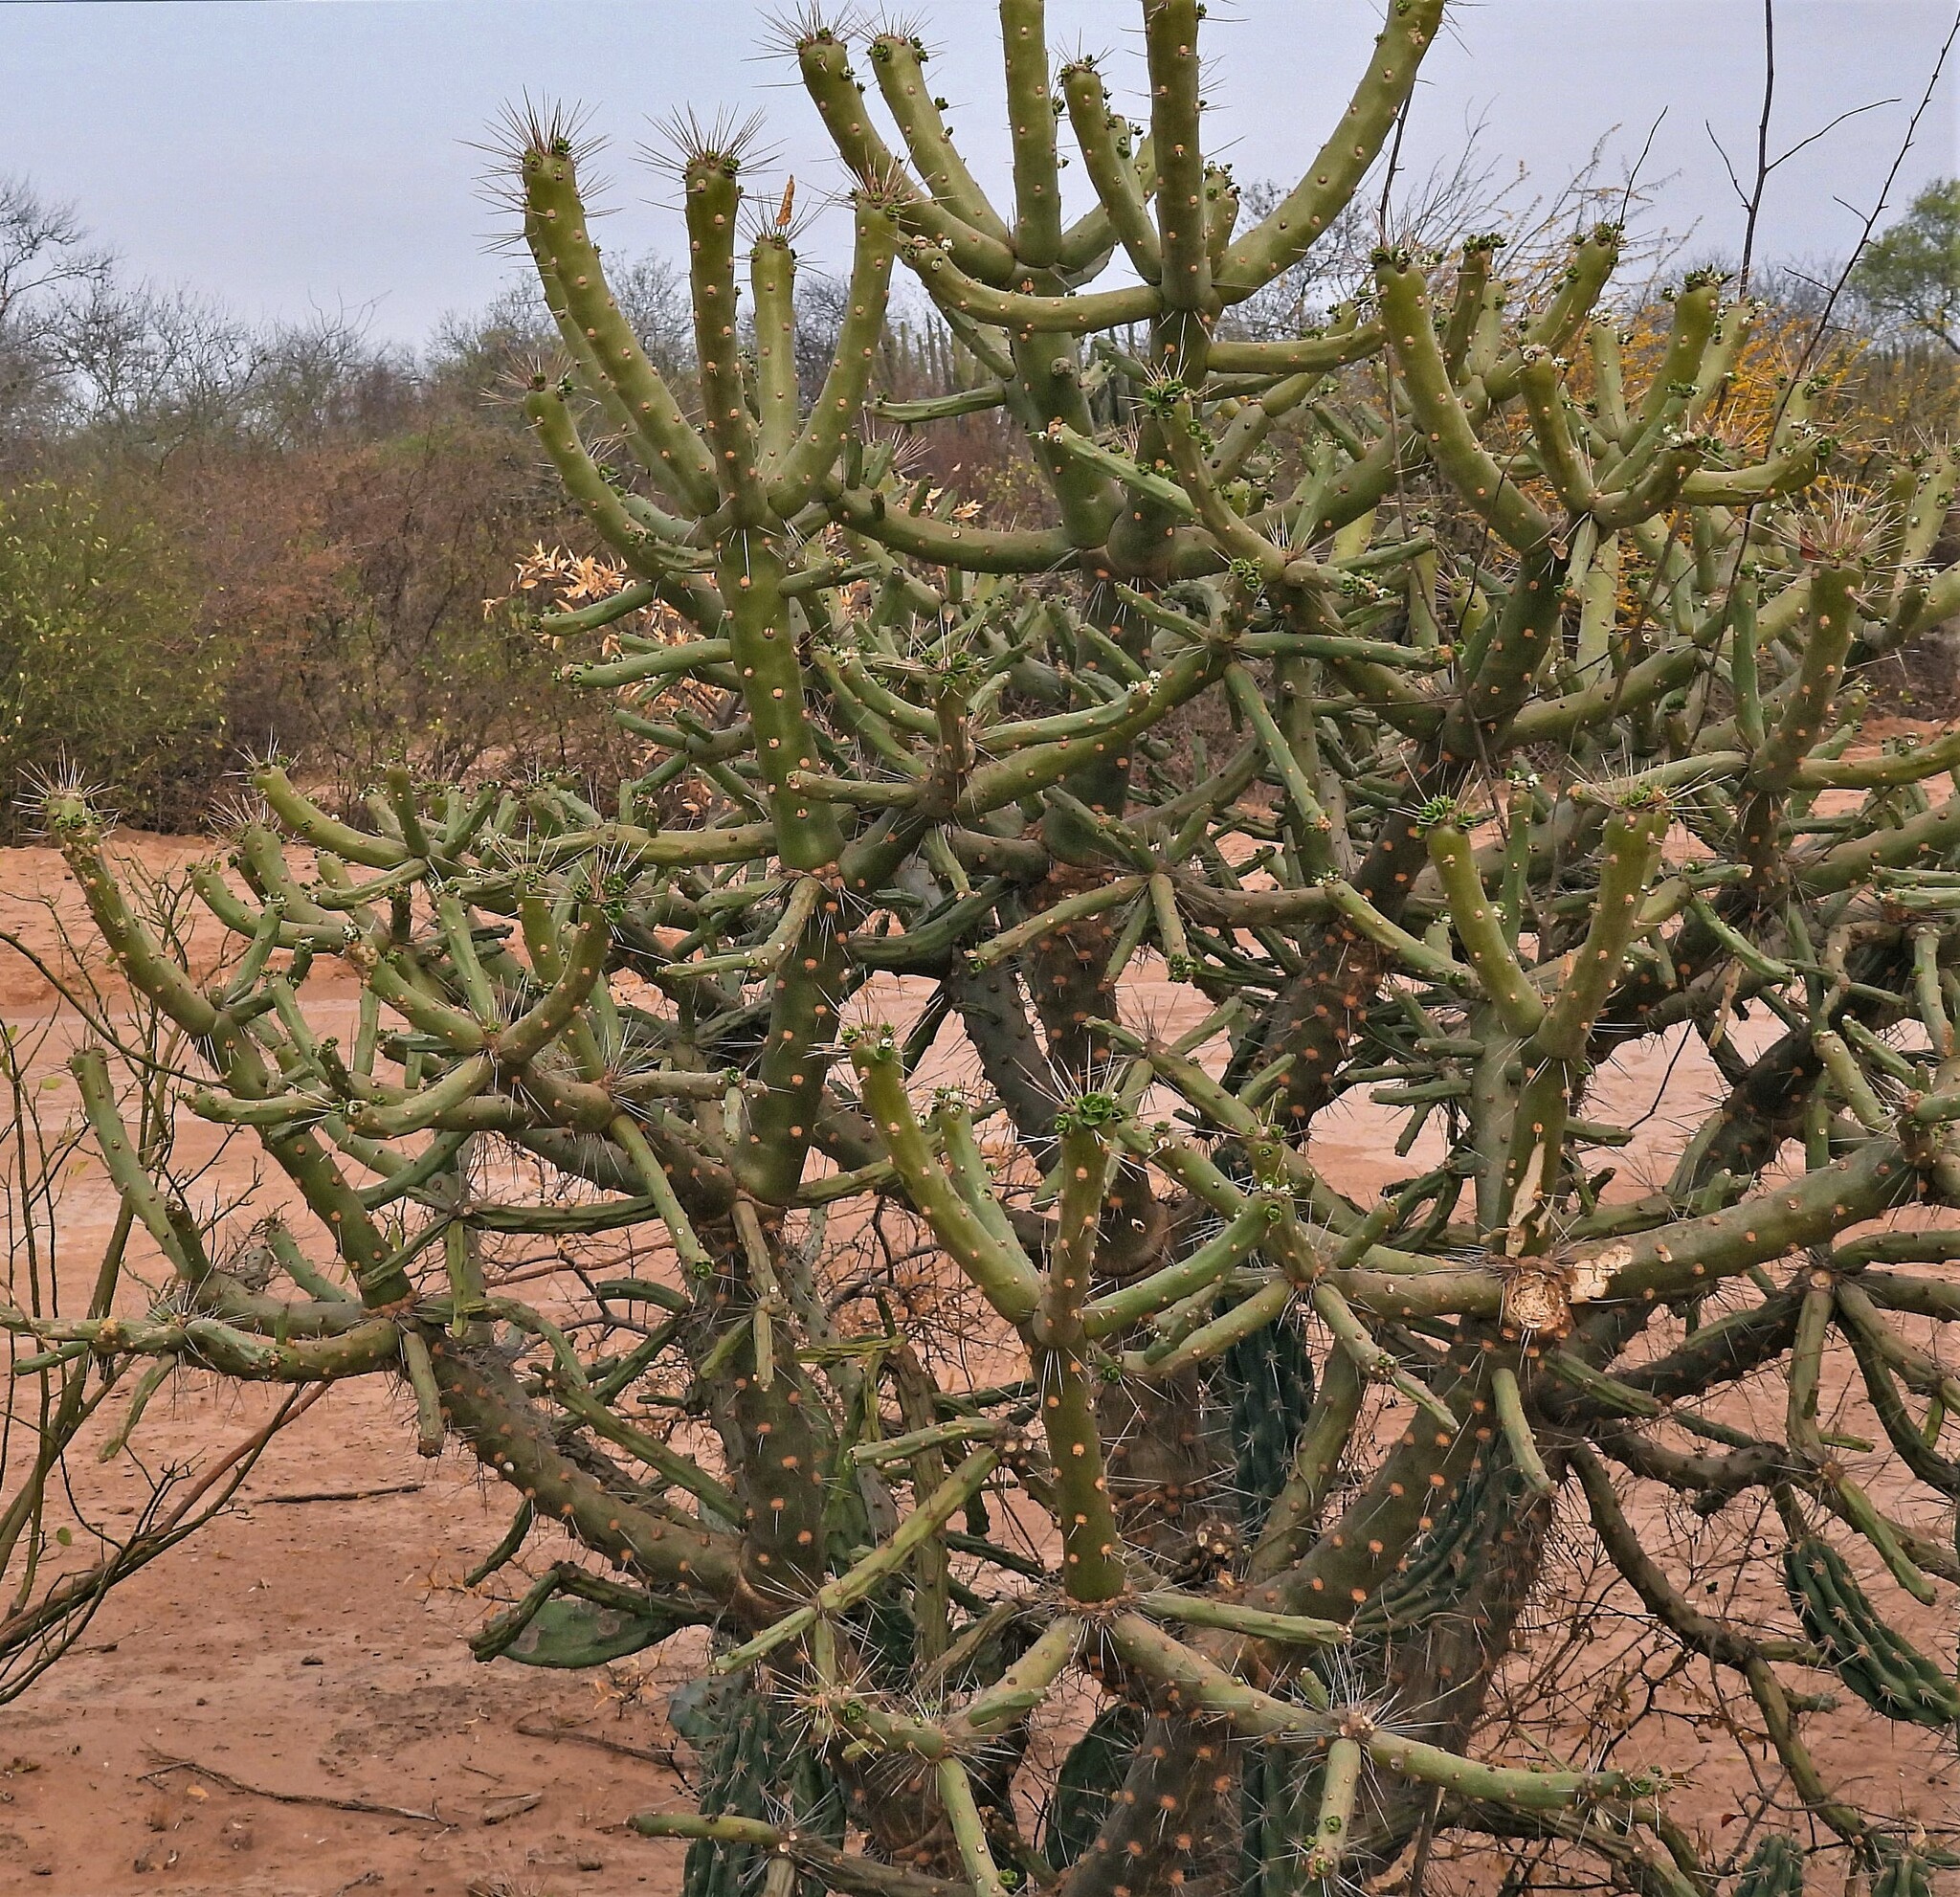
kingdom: Plantae
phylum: Tracheophyta
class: Magnoliopsida
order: Caryophyllales
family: Cactaceae
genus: Quiabentia
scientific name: Quiabentia verticillata
